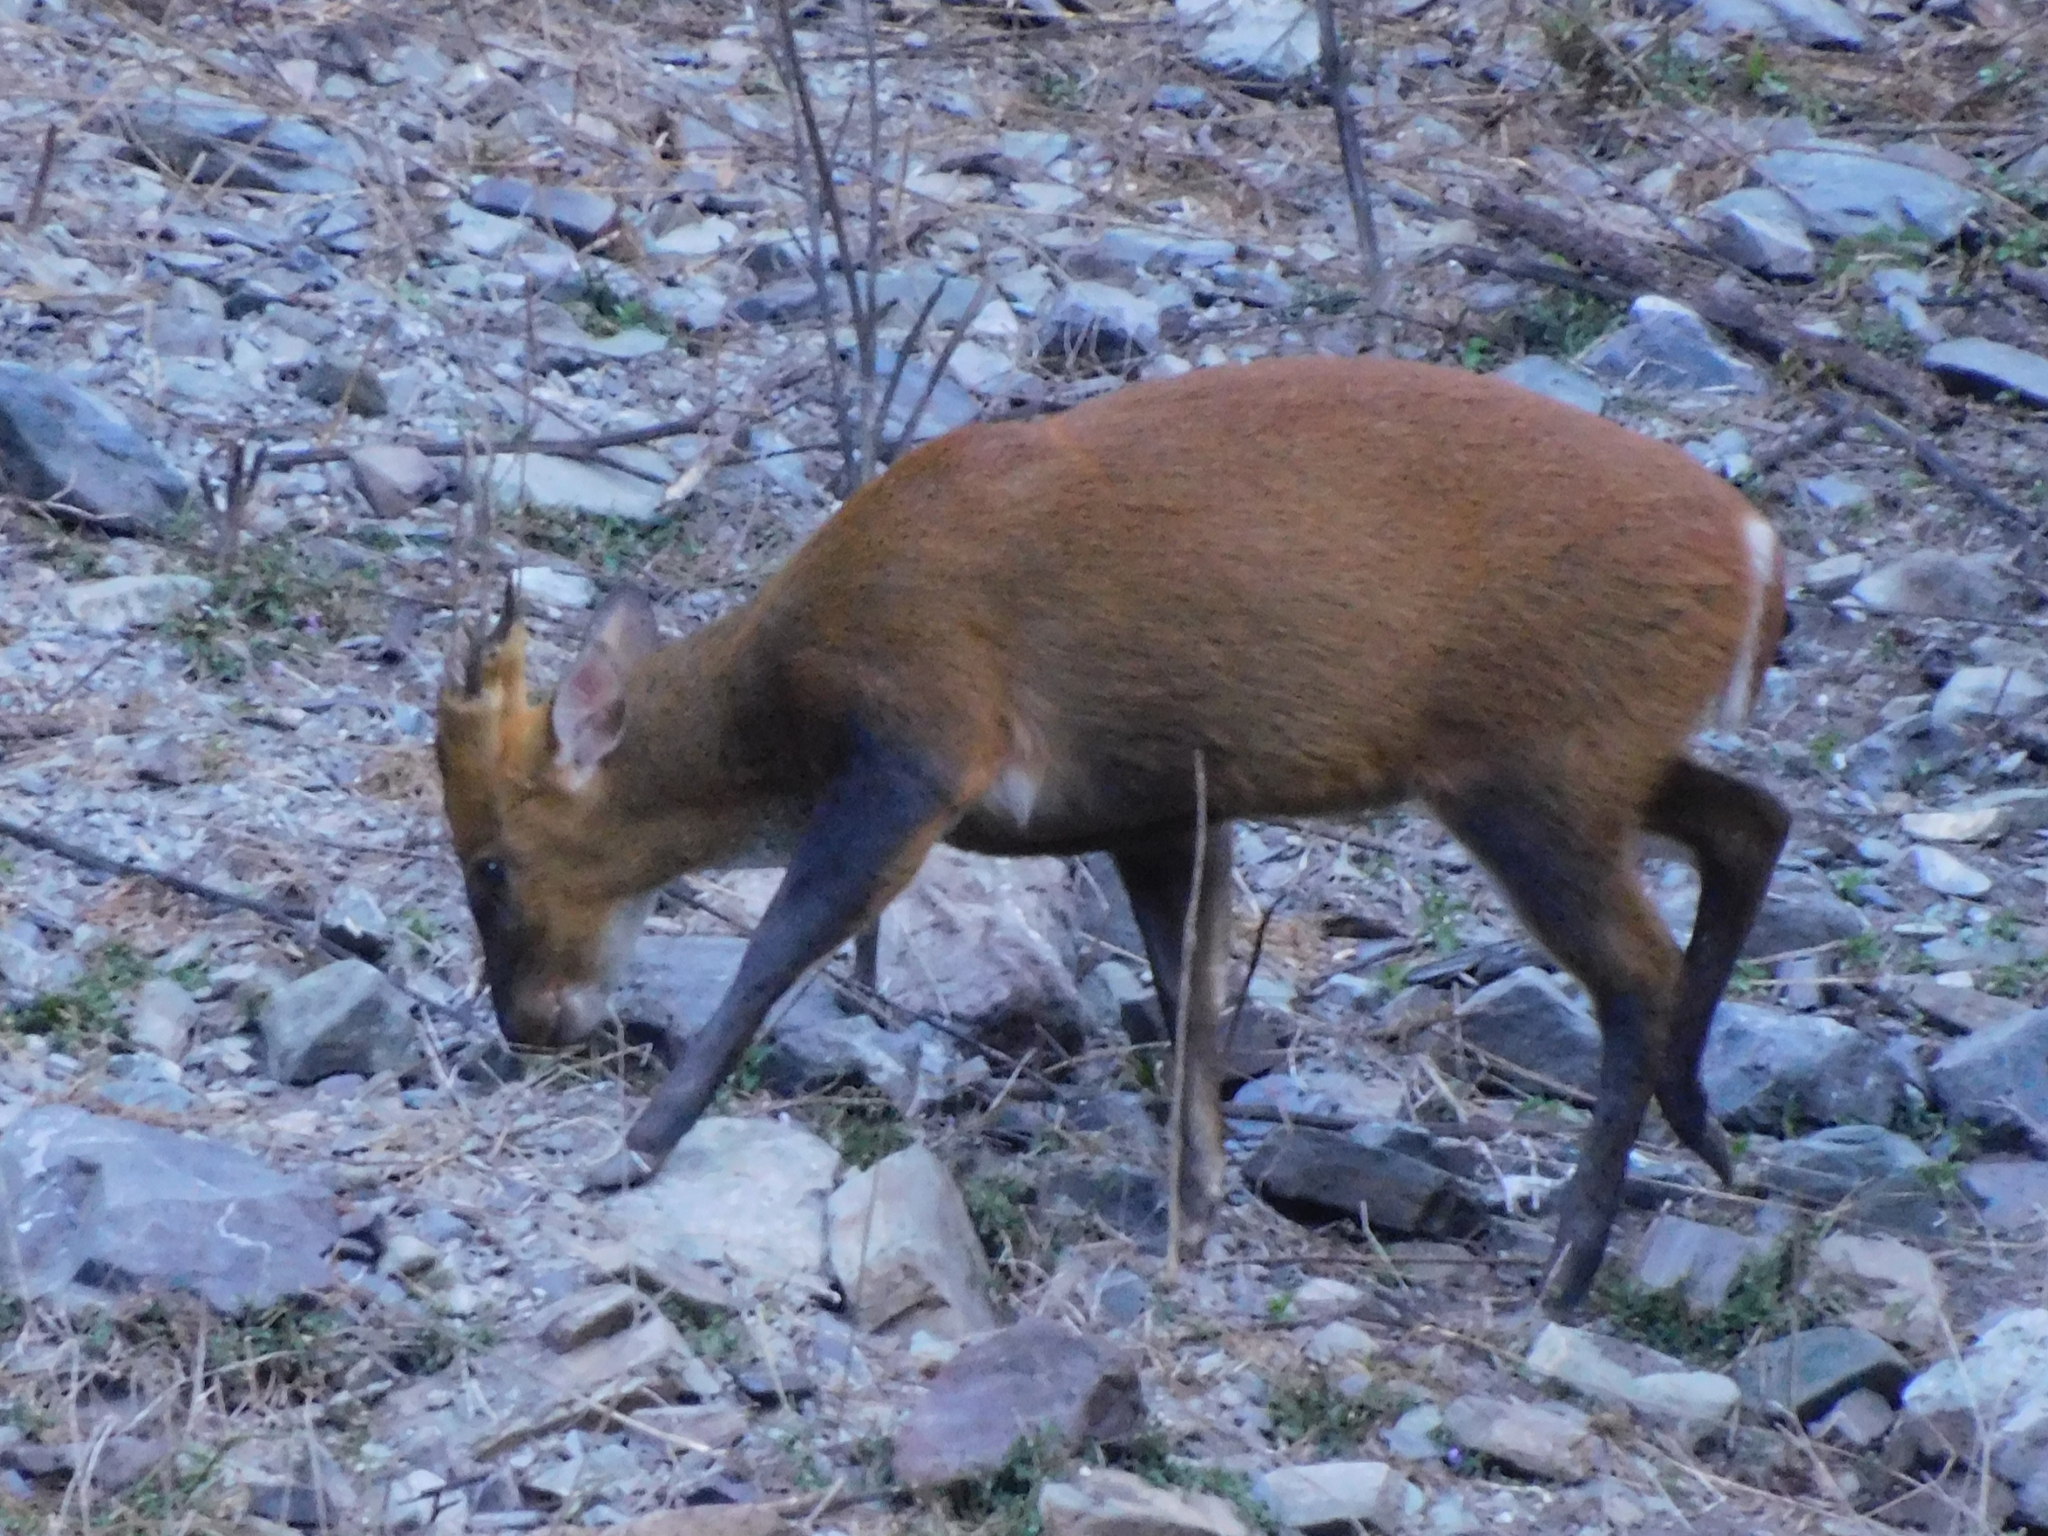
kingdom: Animalia
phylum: Chordata
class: Mammalia
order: Artiodactyla
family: Cervidae
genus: Muntiacus
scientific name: Muntiacus muntjak
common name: Indian muntjac
